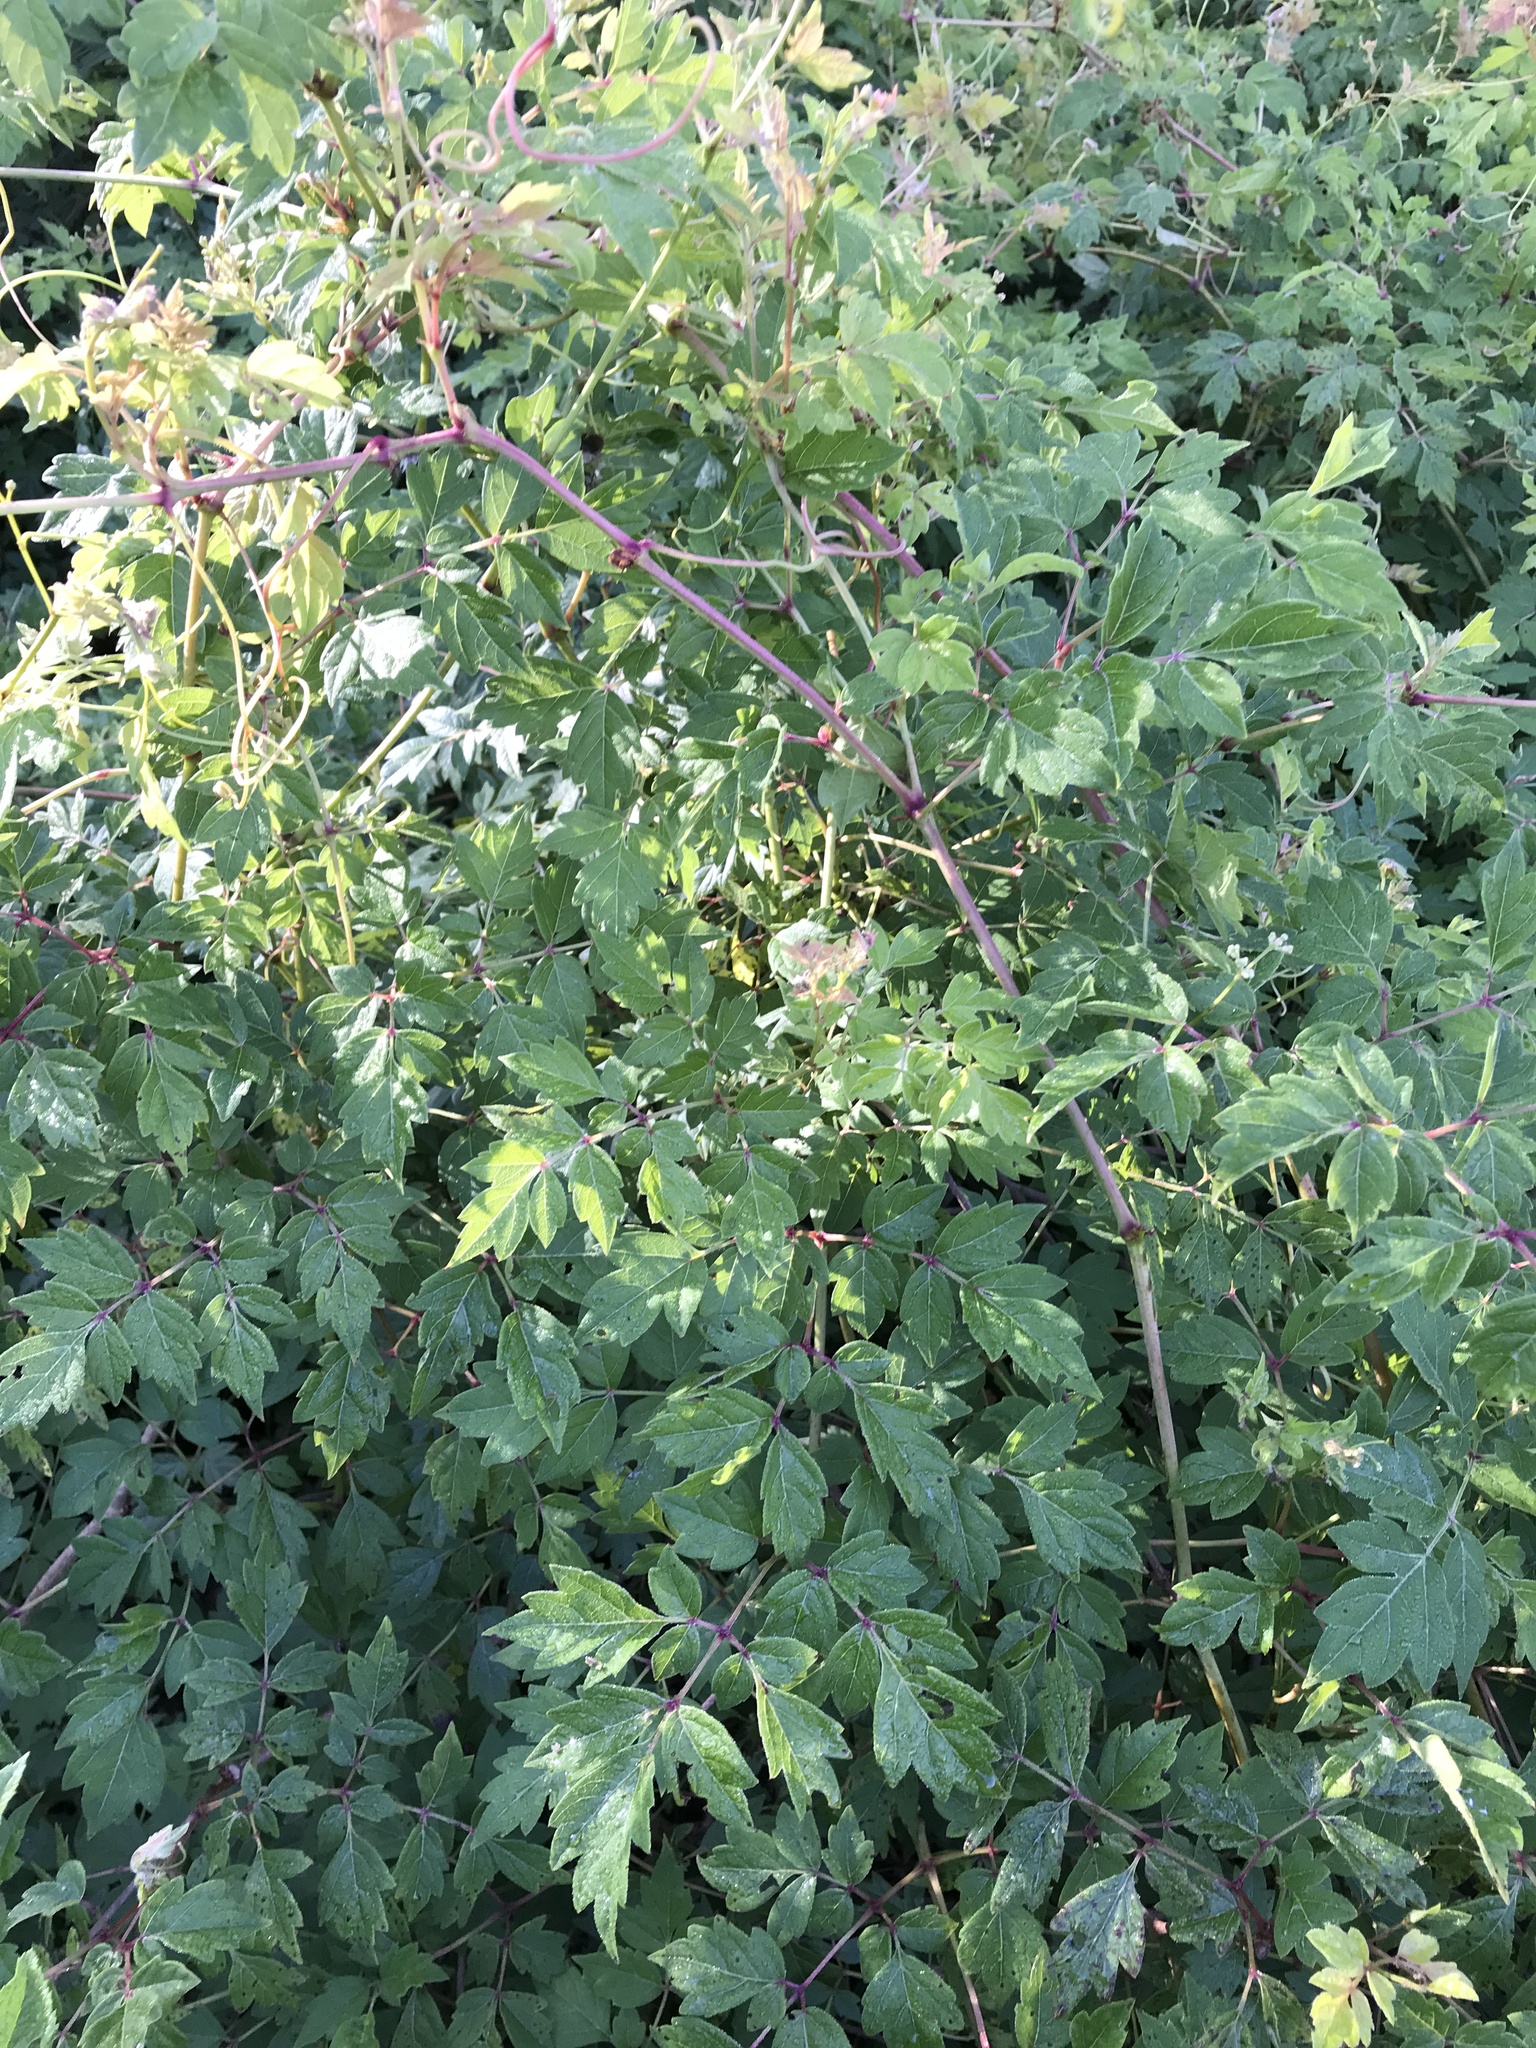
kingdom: Plantae
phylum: Tracheophyta
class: Magnoliopsida
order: Vitales
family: Vitaceae
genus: Nekemias
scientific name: Nekemias arborea
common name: Peppervine
